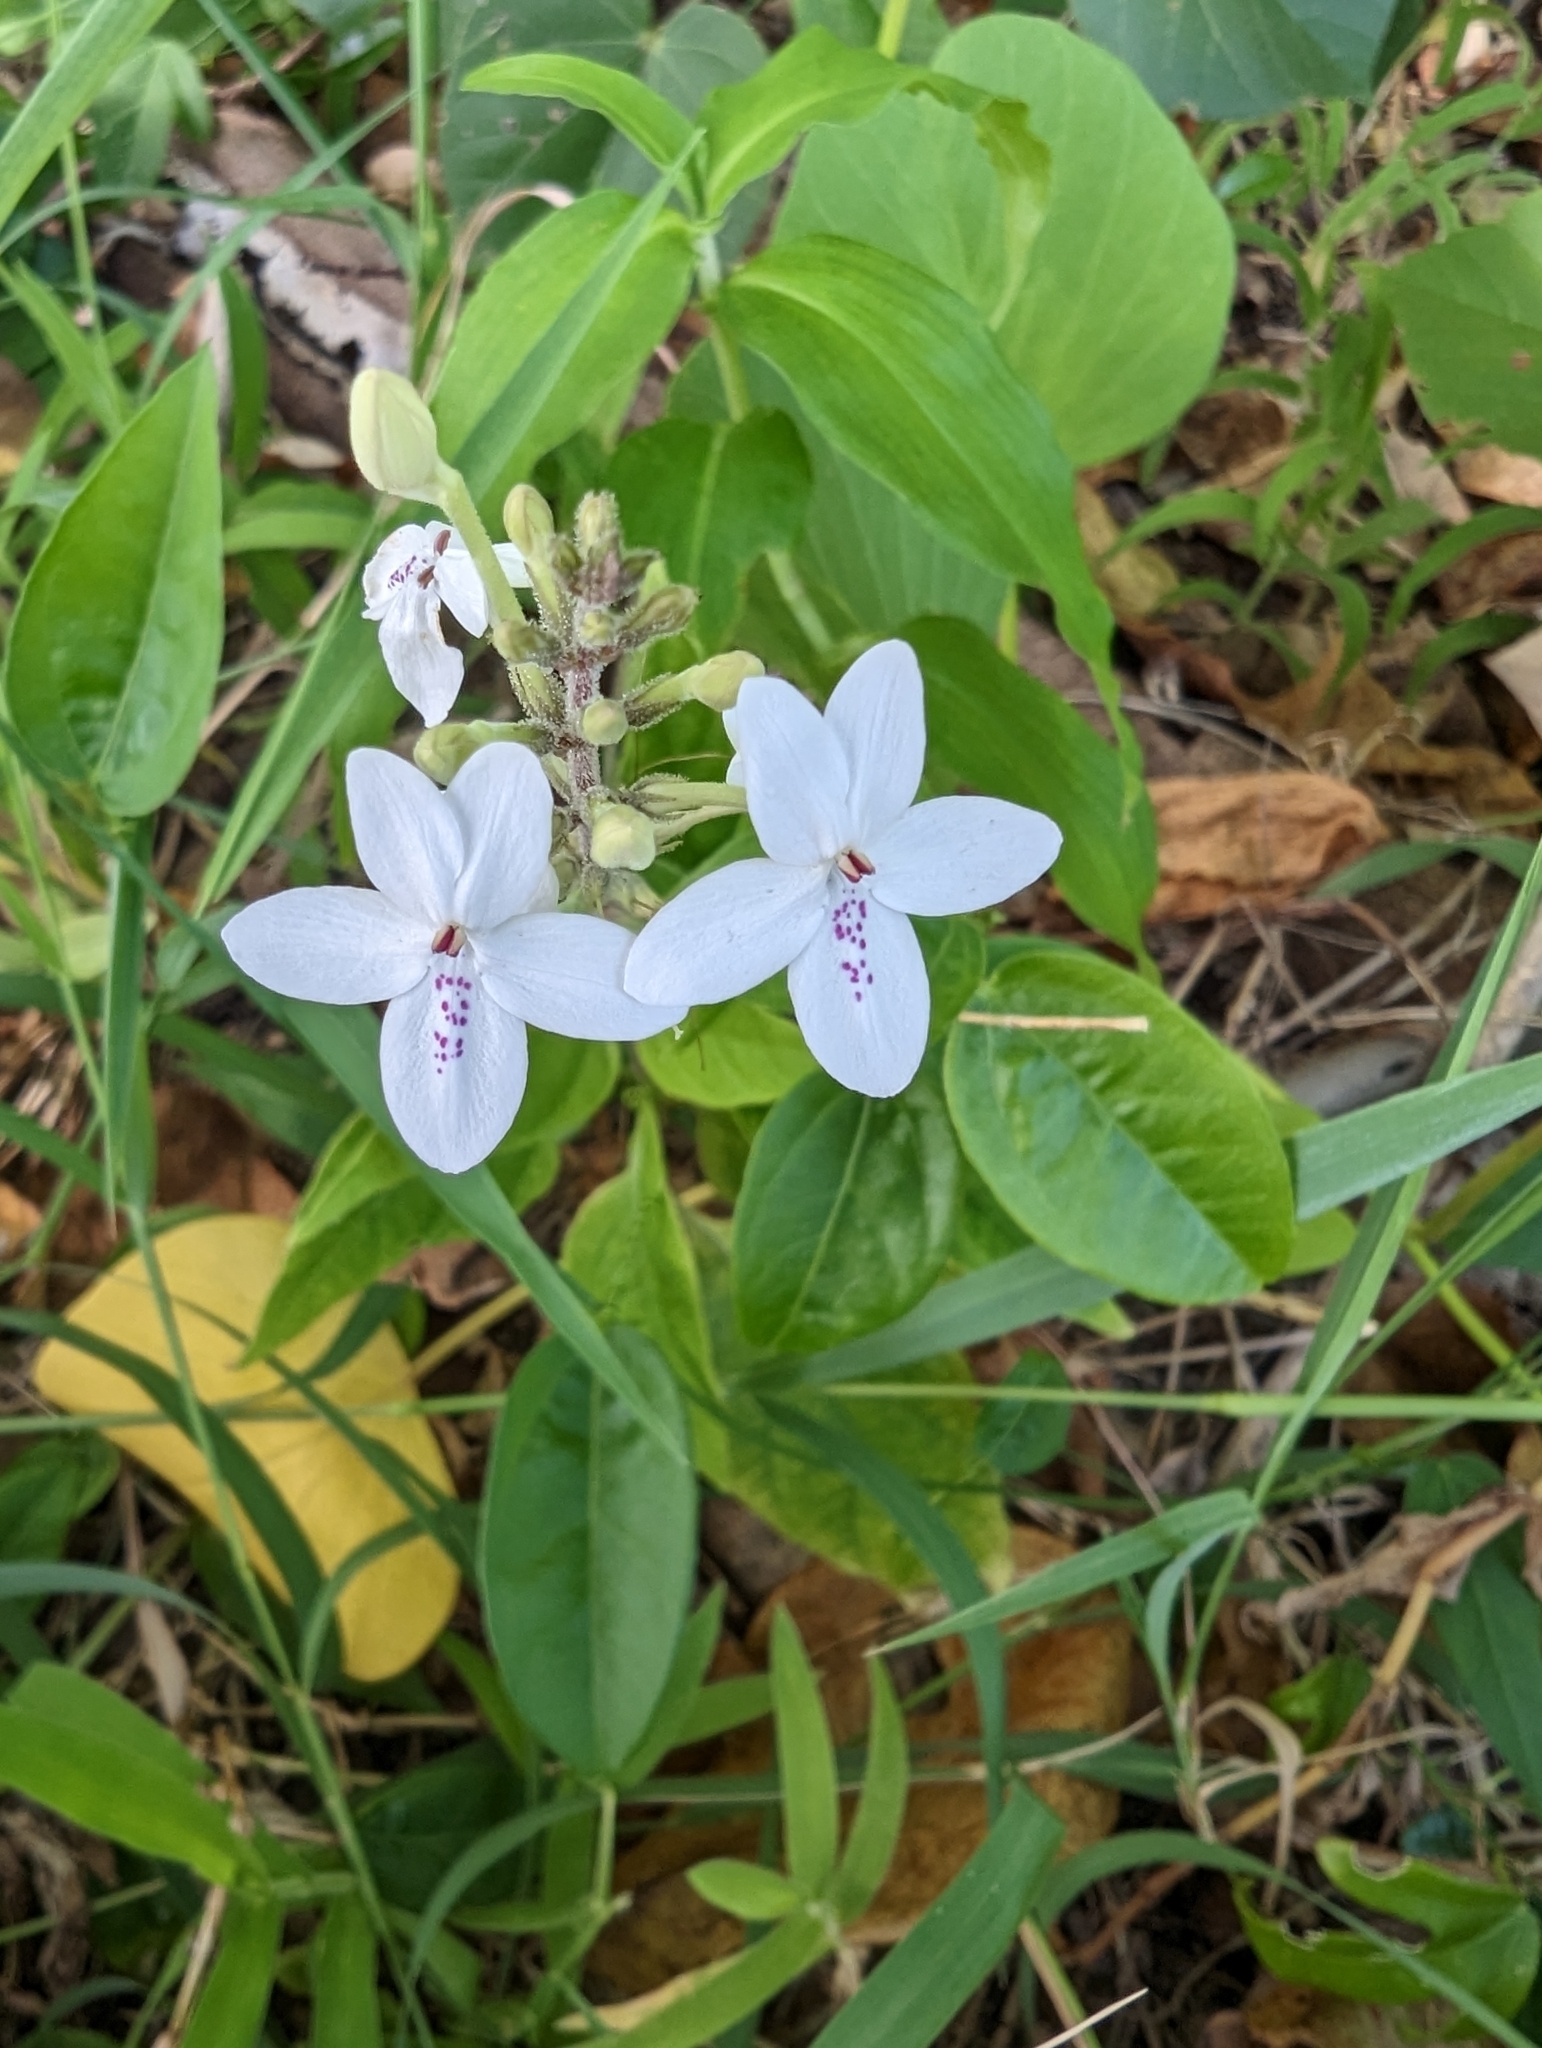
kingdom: Plantae
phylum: Tracheophyta
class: Magnoliopsida
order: Lamiales
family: Acanthaceae
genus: Pseuderanthemum
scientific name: Pseuderanthemum variabile
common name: Night and afternoon
